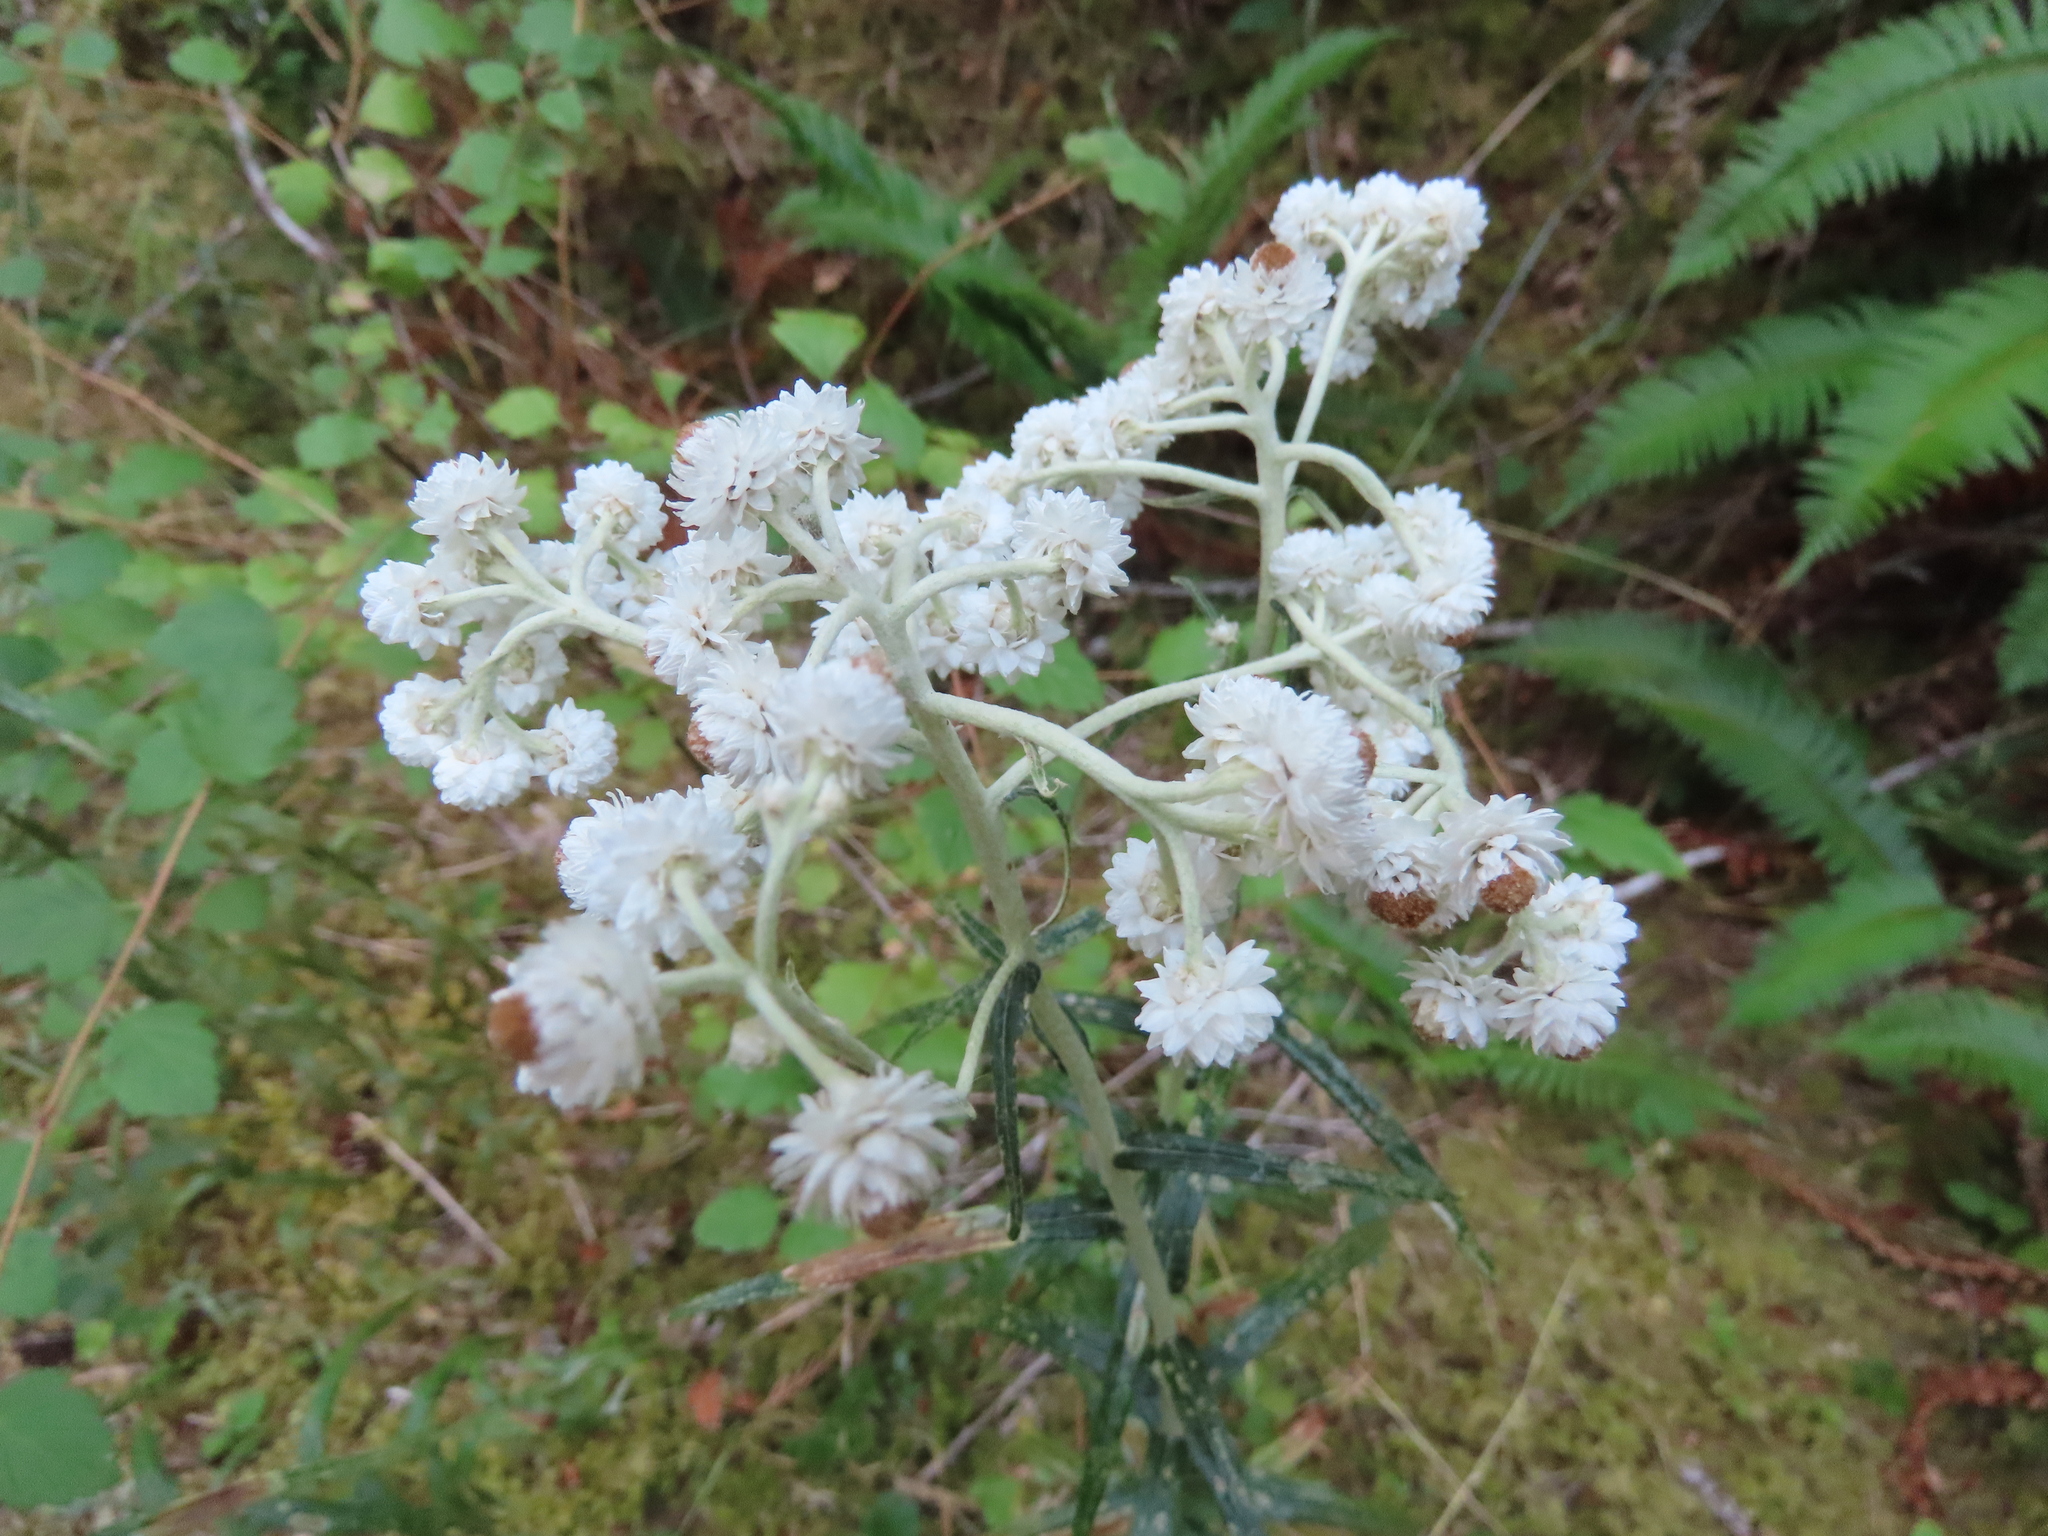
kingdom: Plantae
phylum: Tracheophyta
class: Magnoliopsida
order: Asterales
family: Asteraceae
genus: Anaphalis
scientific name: Anaphalis margaritacea
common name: Pearly everlasting
